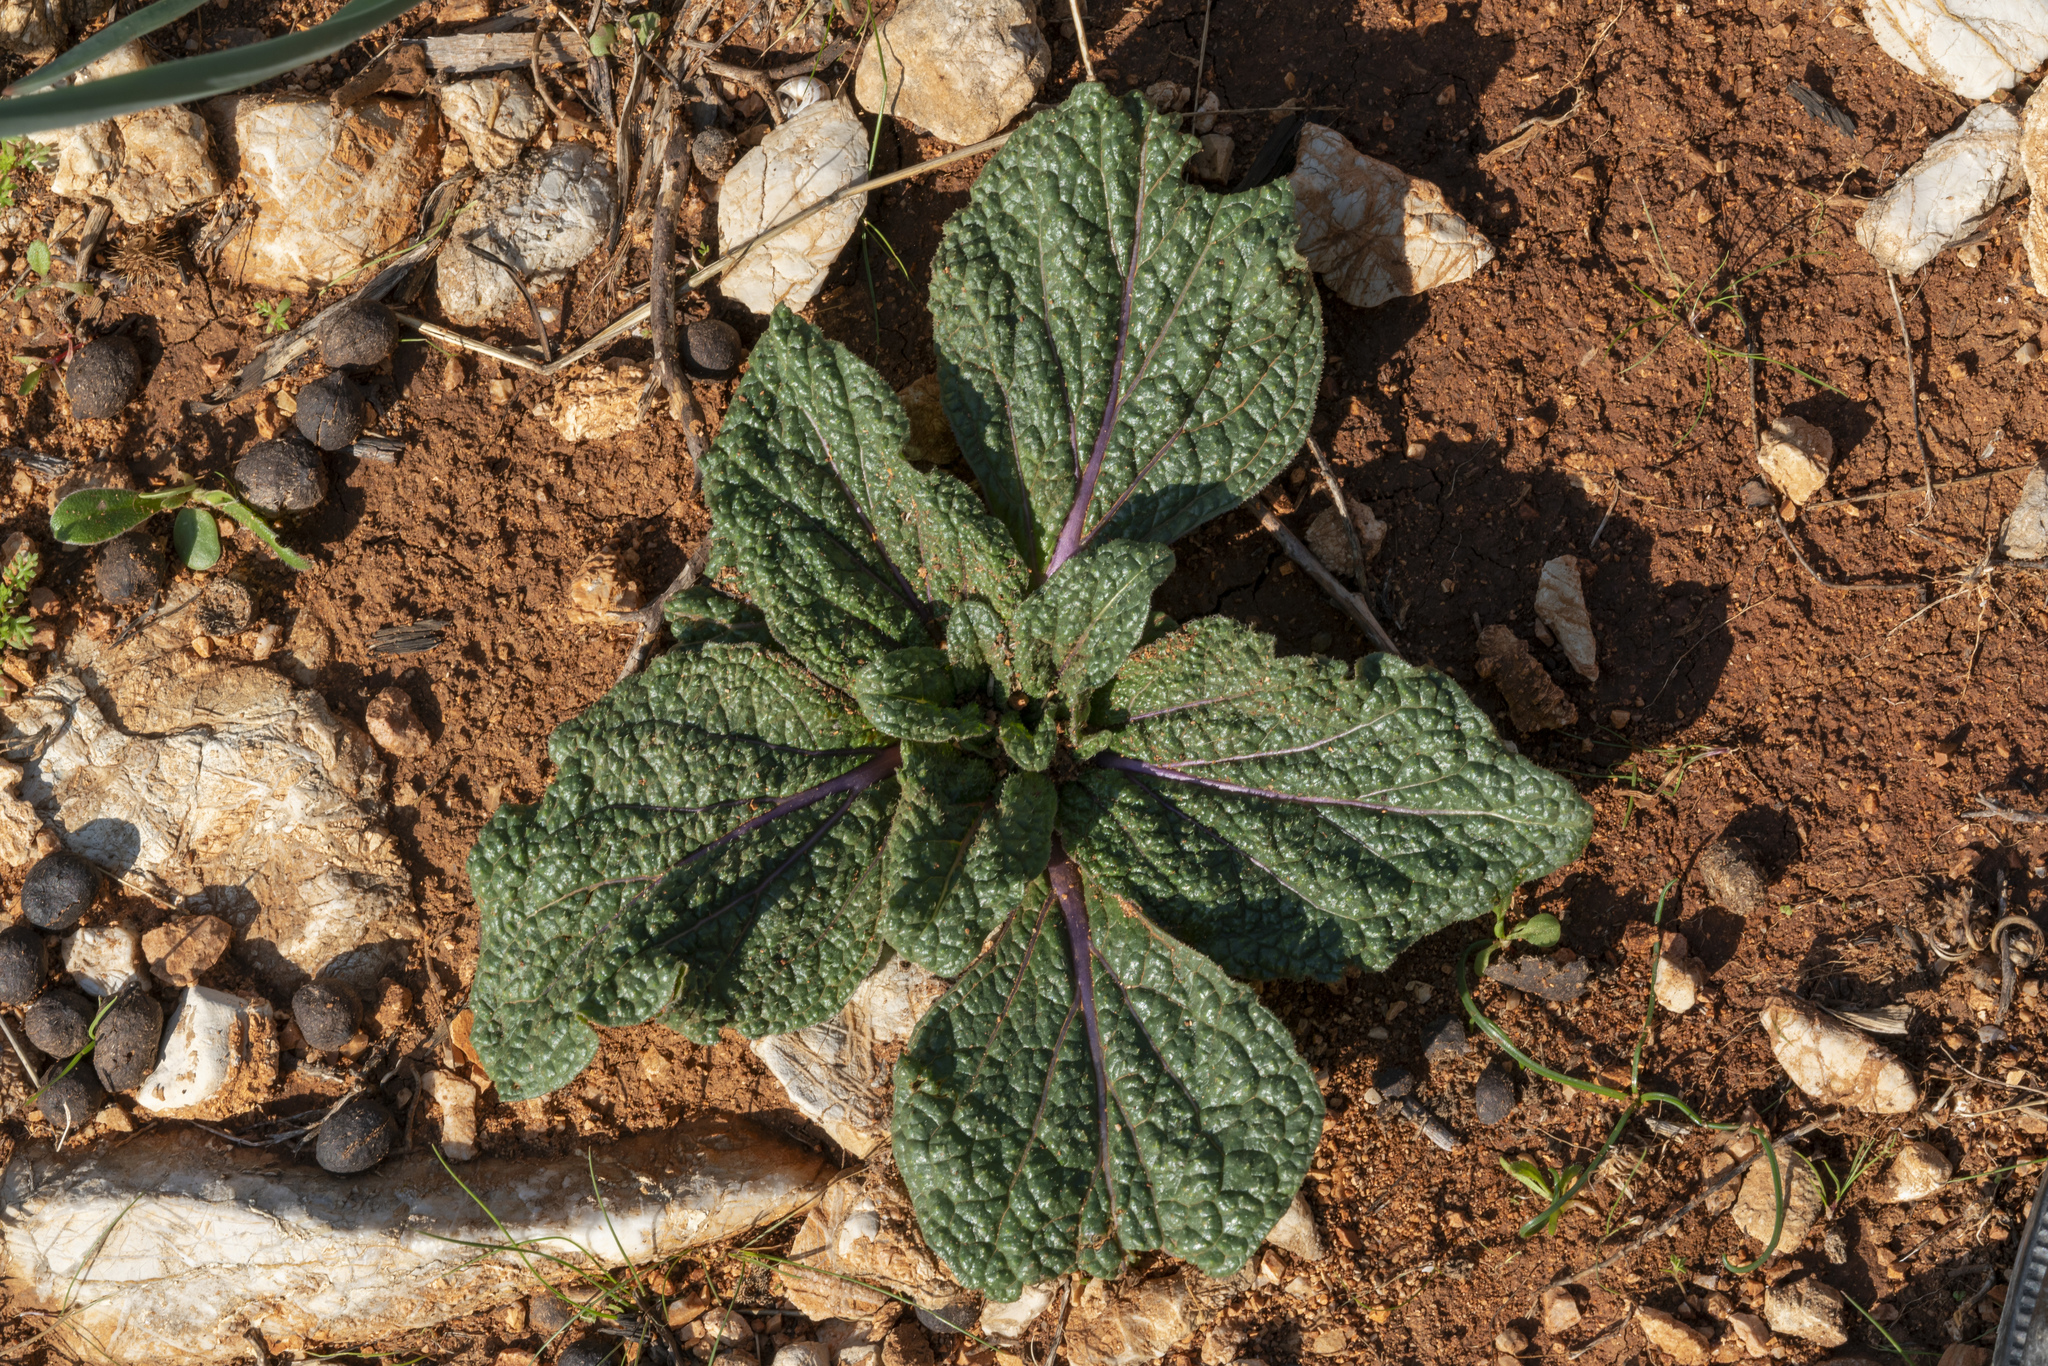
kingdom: Plantae
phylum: Tracheophyta
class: Magnoliopsida
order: Solanales
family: Solanaceae
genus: Mandragora
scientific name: Mandragora officinarum
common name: Mandrake
